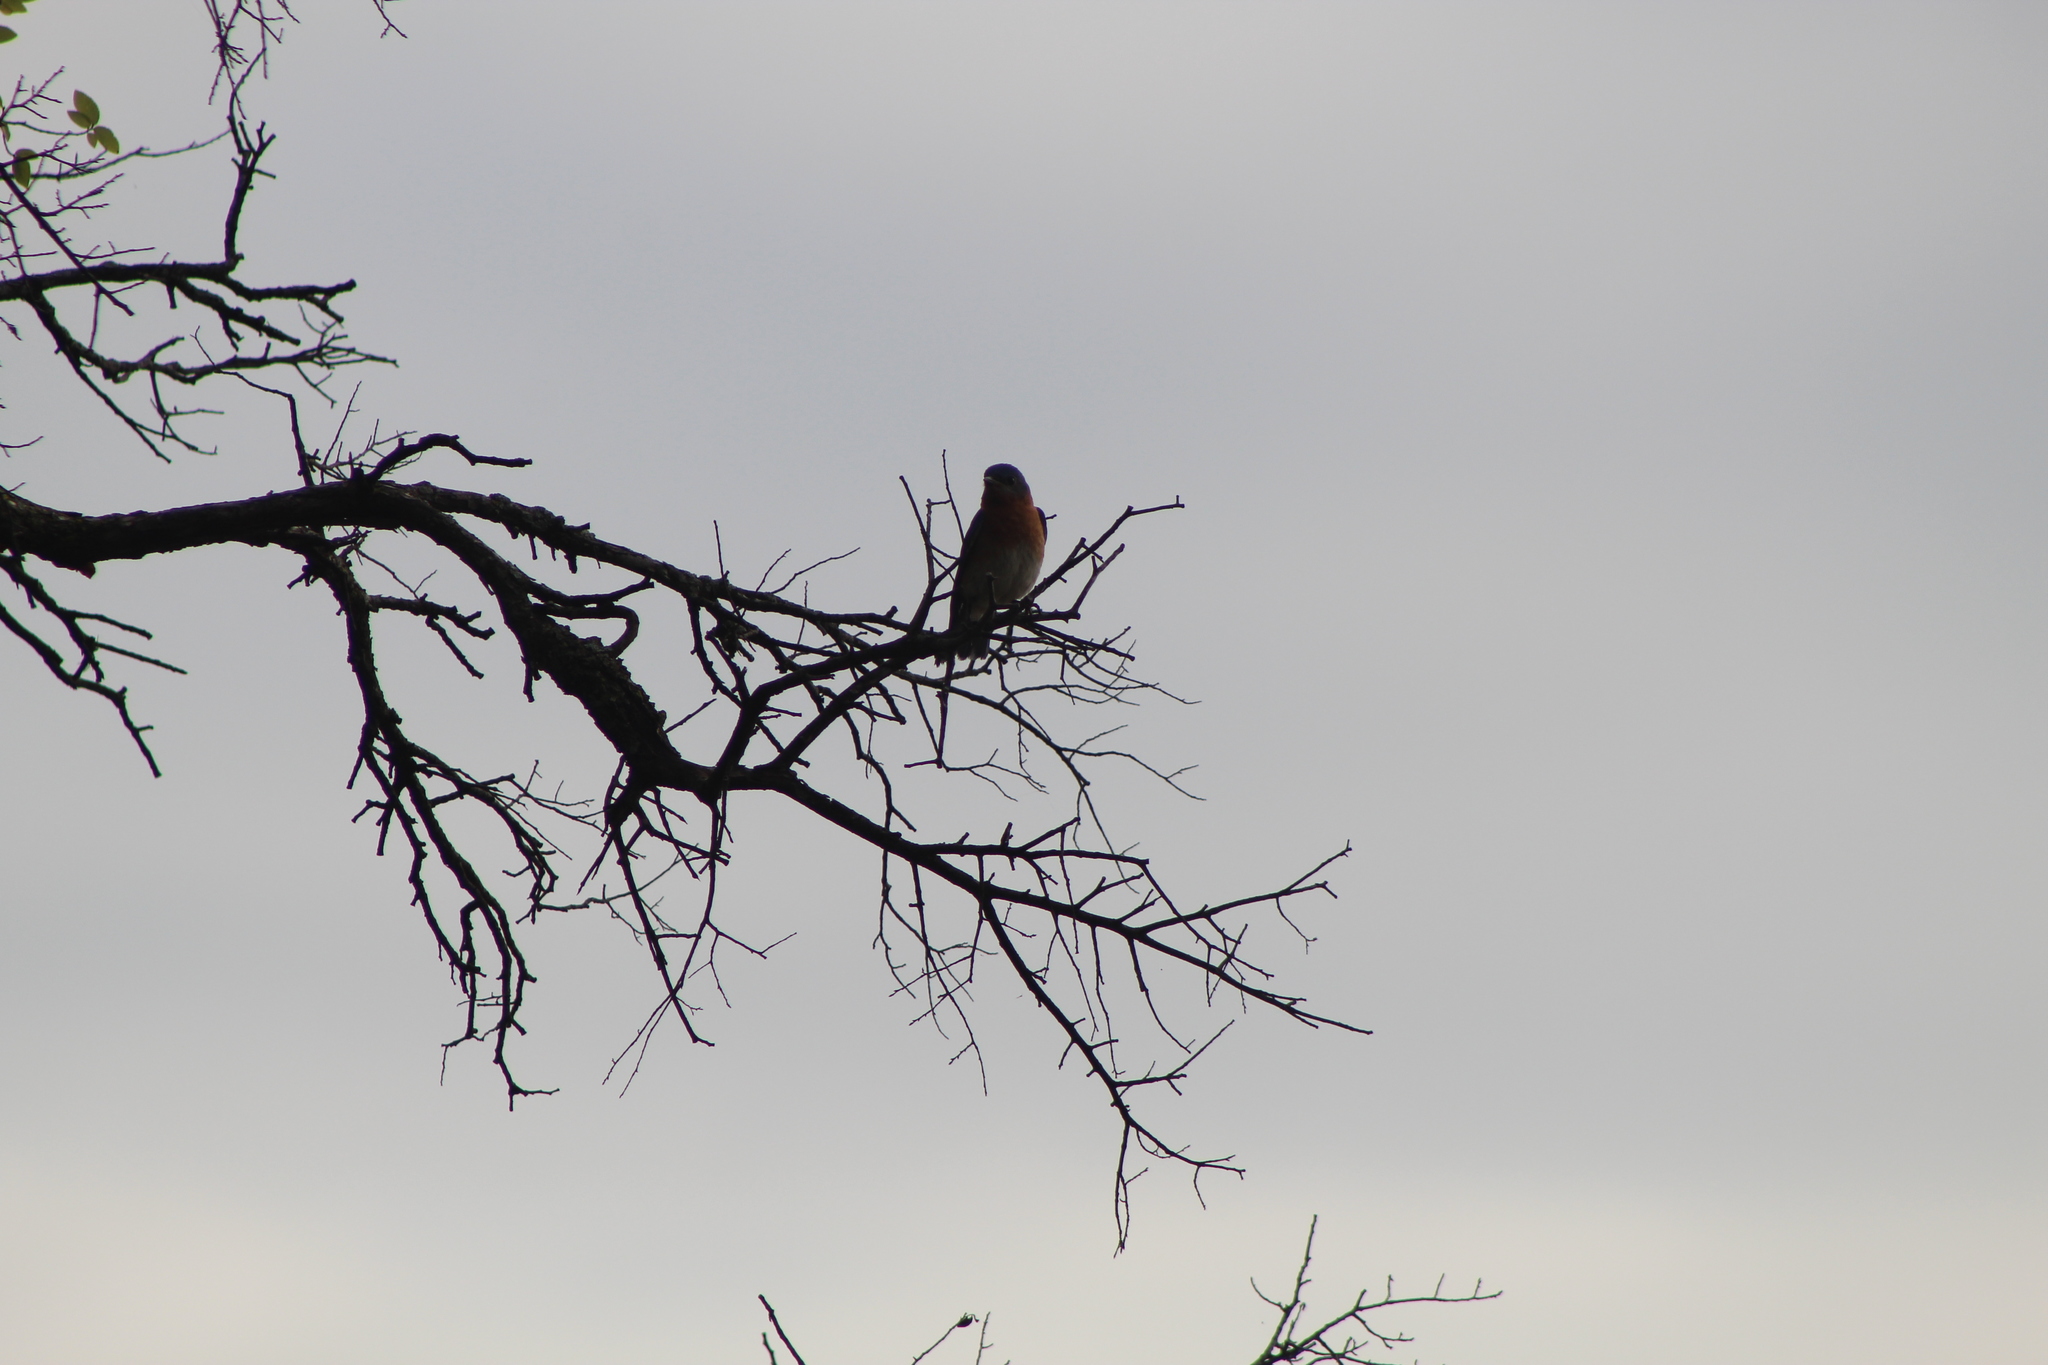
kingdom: Animalia
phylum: Chordata
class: Aves
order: Passeriformes
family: Turdidae
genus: Sialia
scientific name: Sialia sialis
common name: Eastern bluebird
